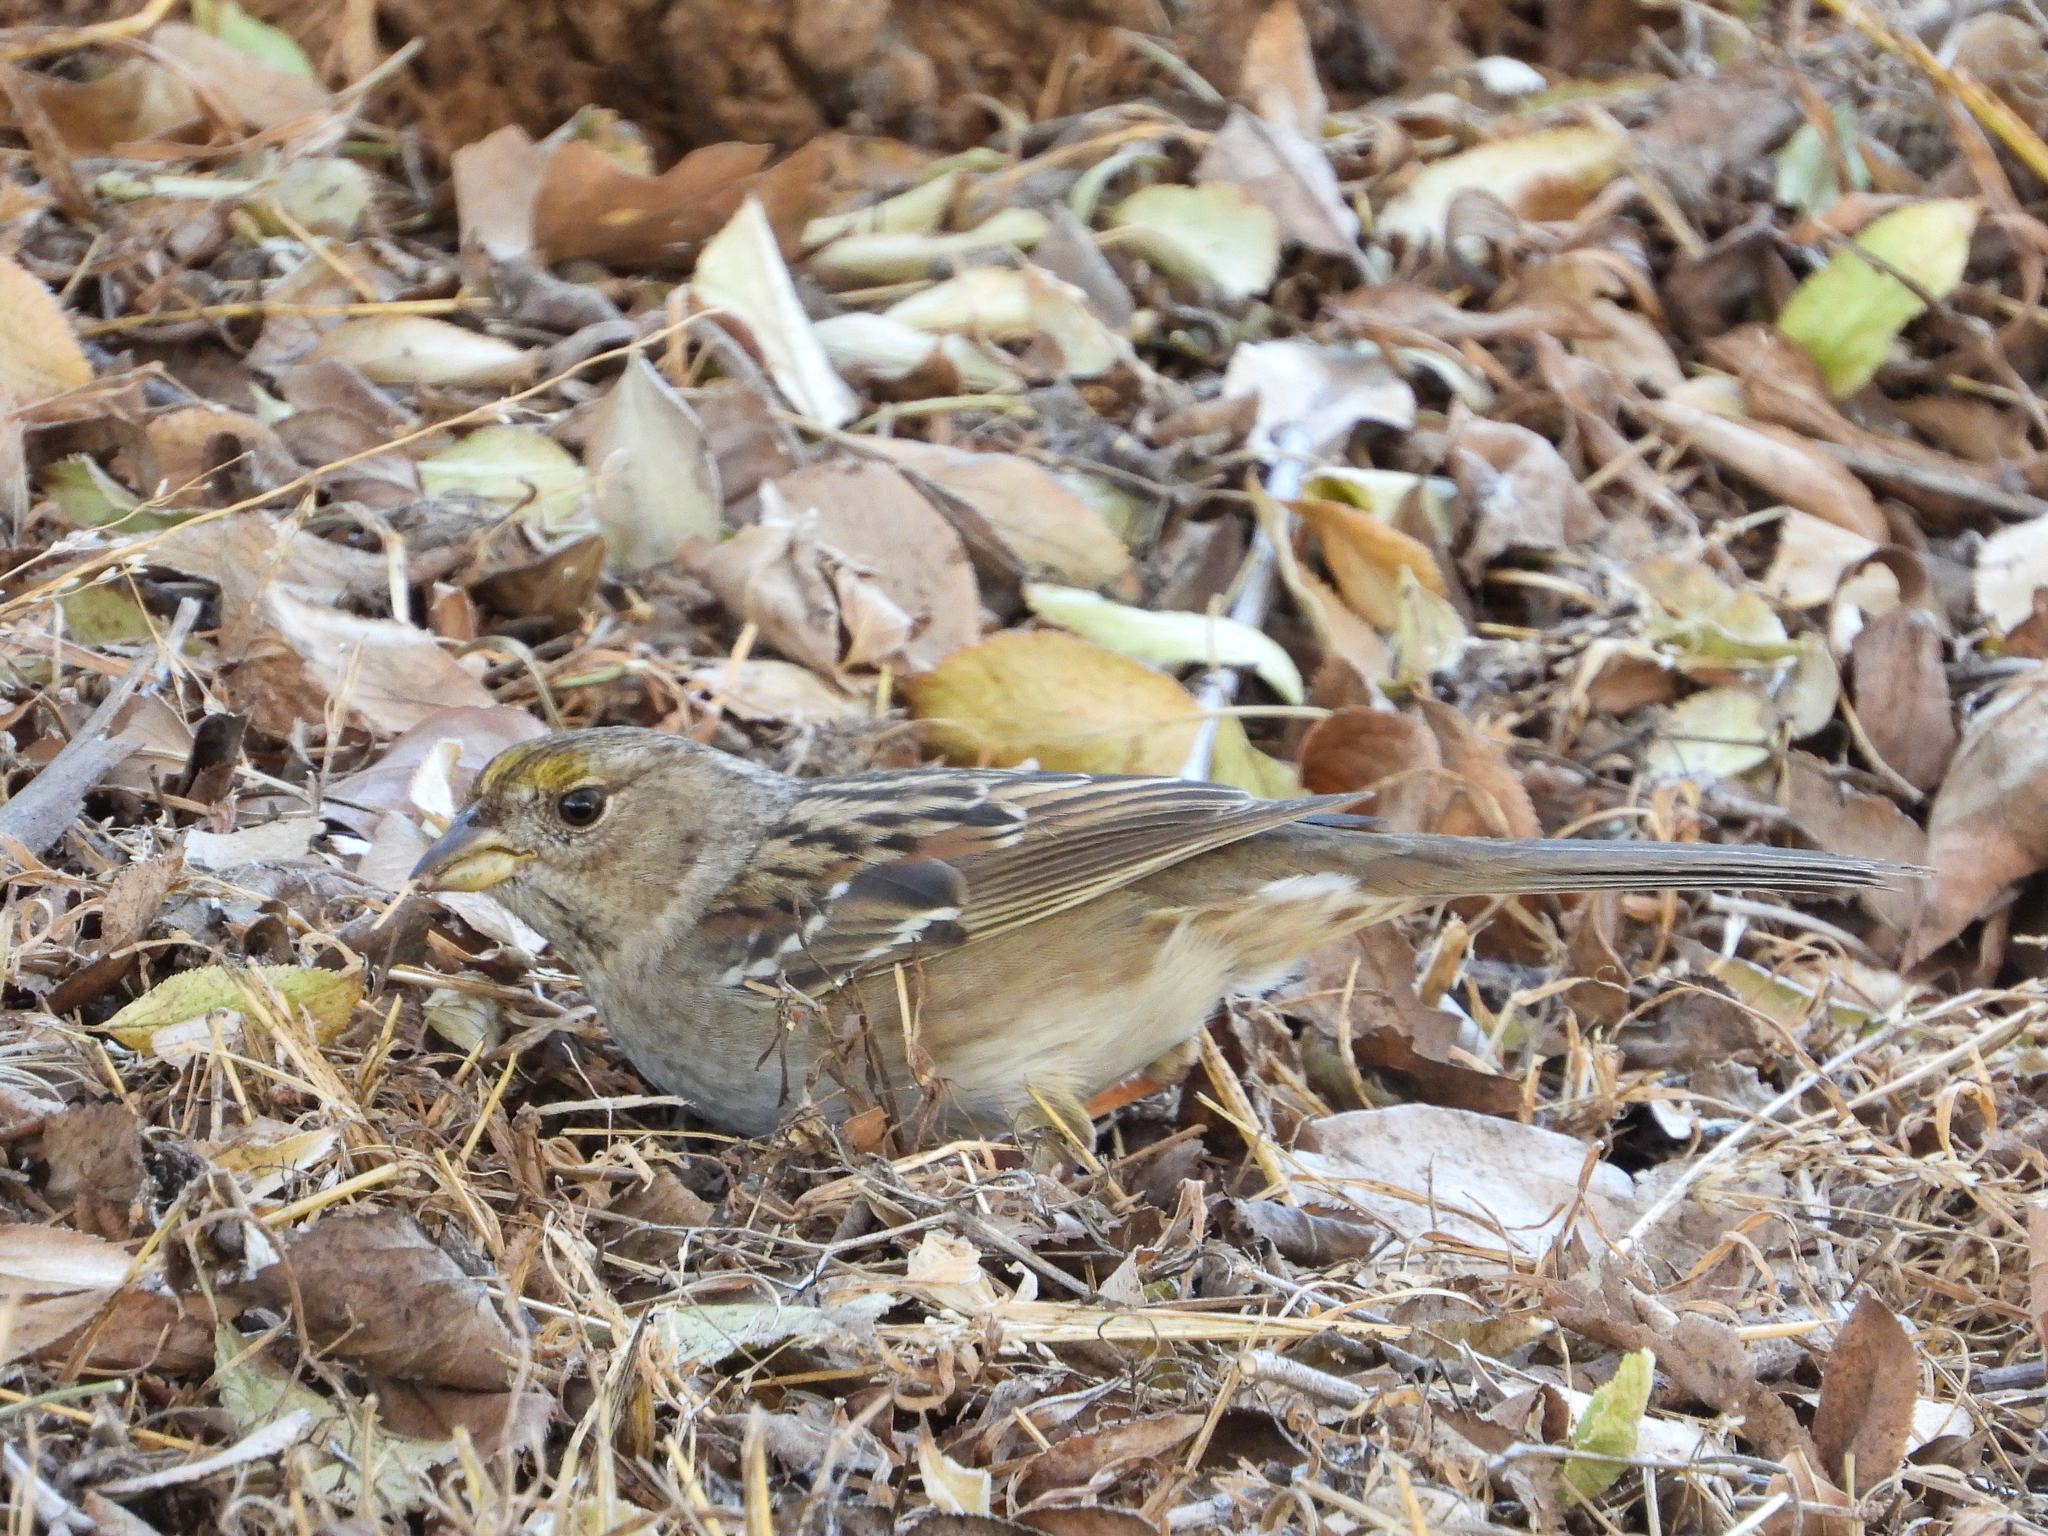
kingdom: Animalia
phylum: Chordata
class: Aves
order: Passeriformes
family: Passerellidae
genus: Zonotrichia
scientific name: Zonotrichia atricapilla
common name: Golden-crowned sparrow
